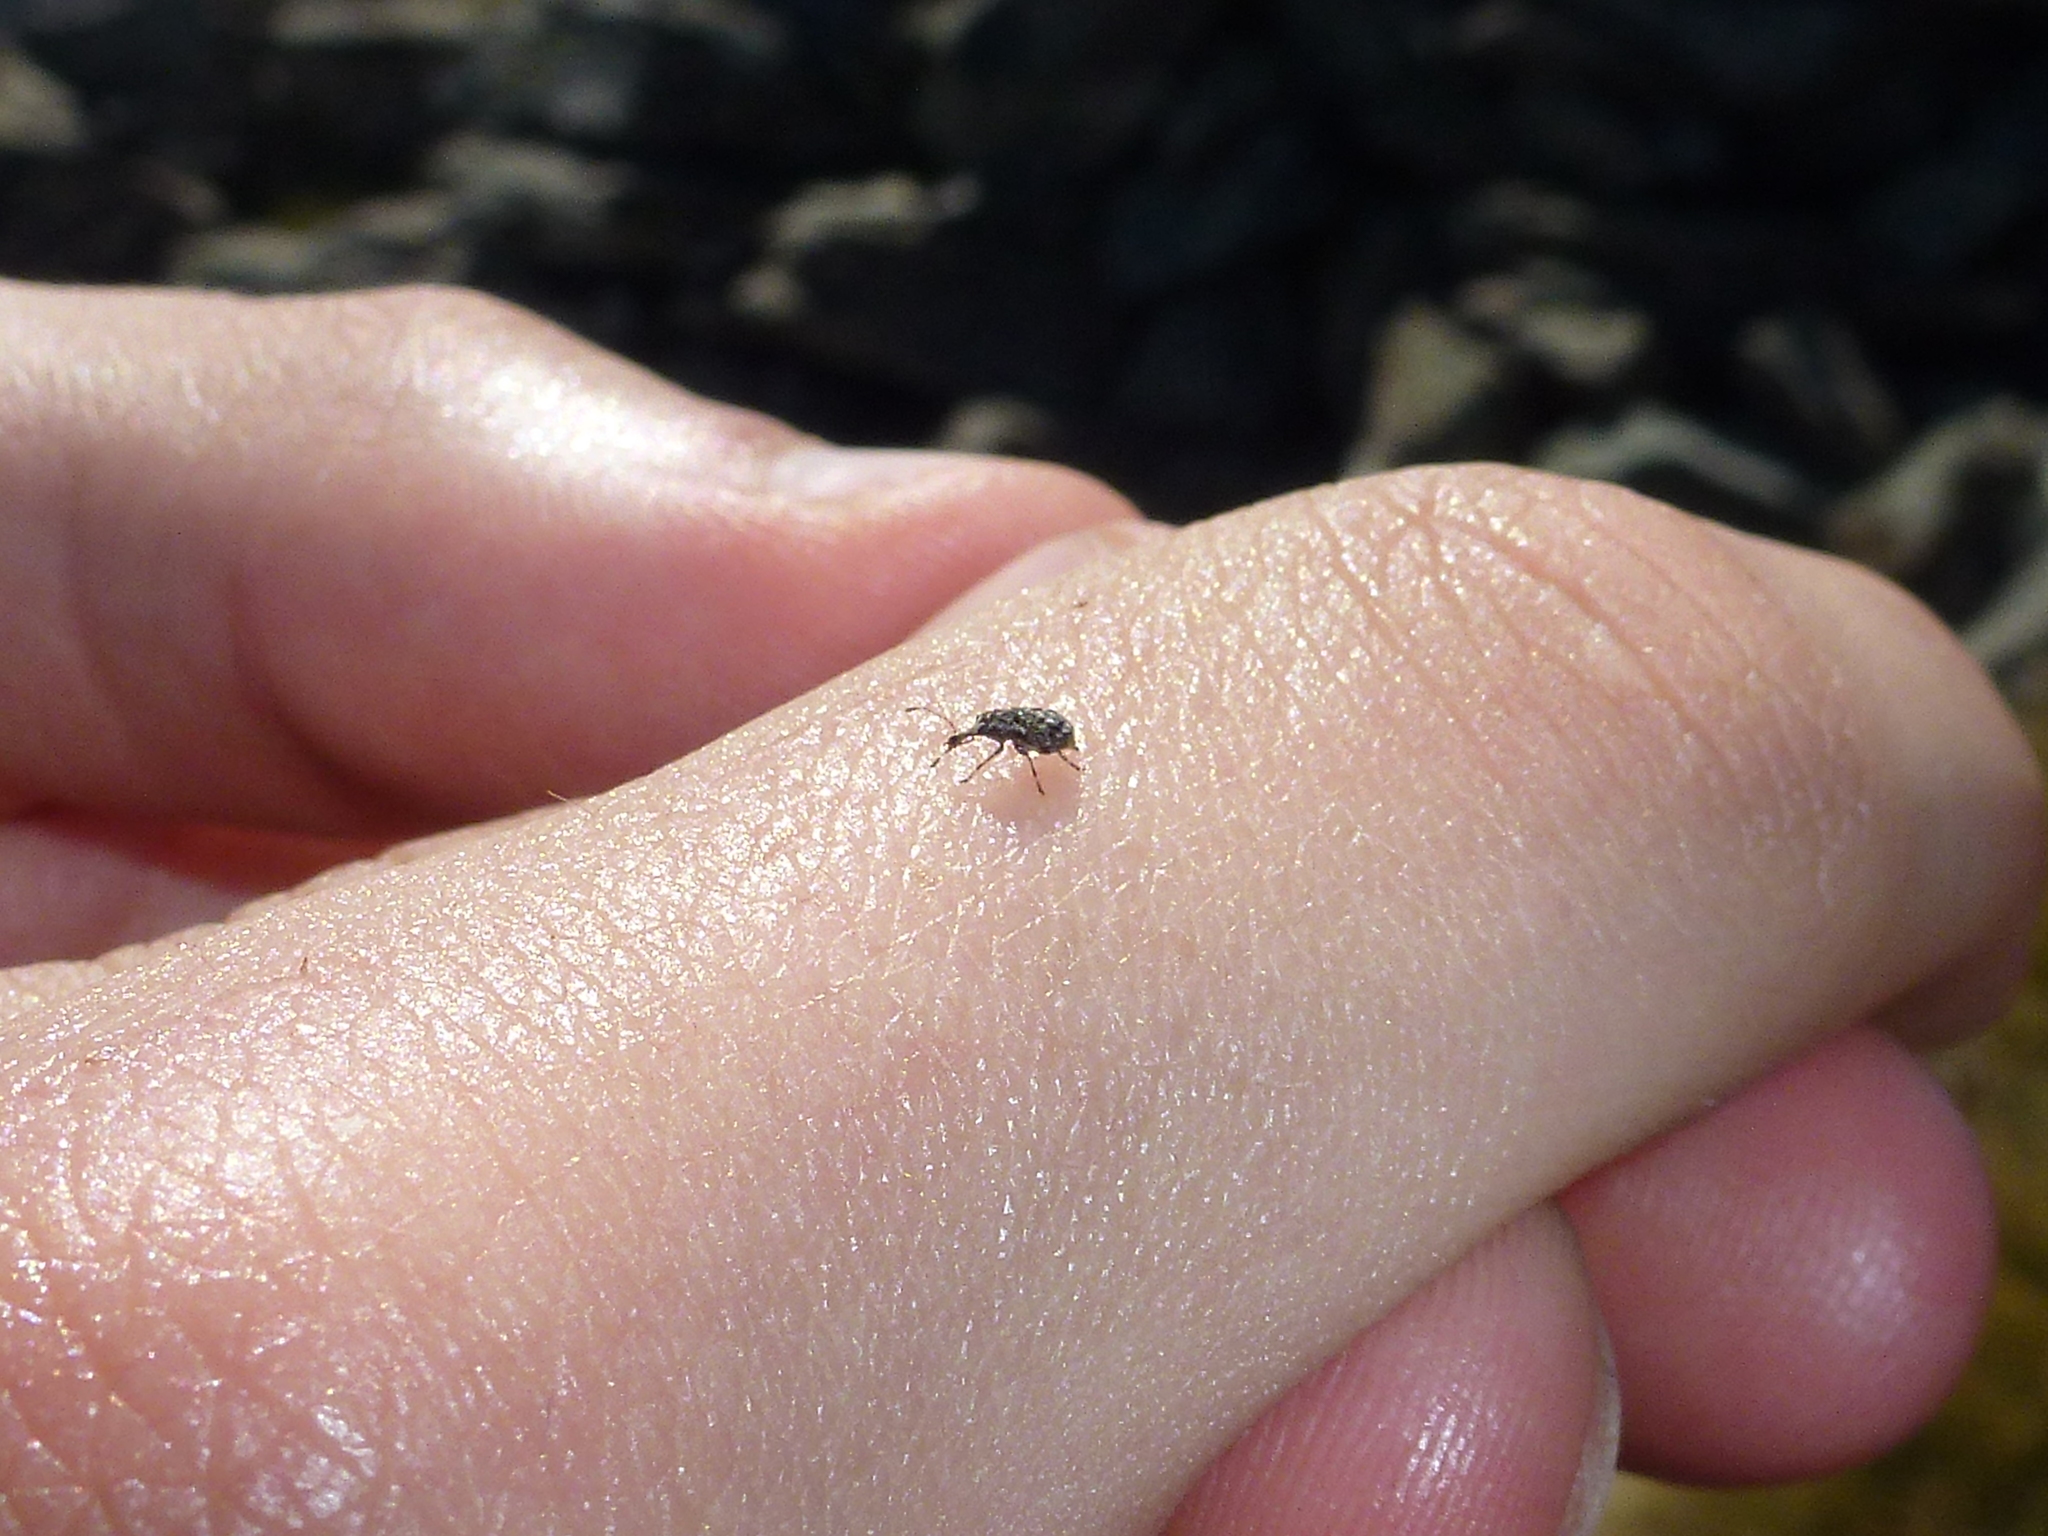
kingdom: Animalia
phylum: Arthropoda
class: Insecta
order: Coleoptera
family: Anthribidae
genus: Helmoreus
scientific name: Helmoreus
